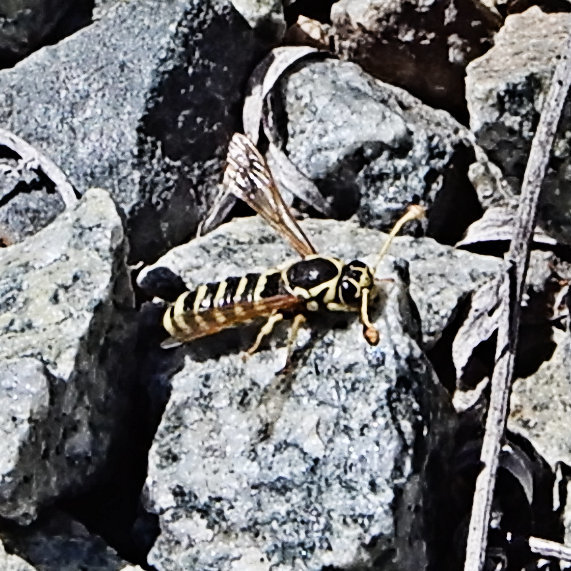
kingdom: Animalia
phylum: Arthropoda
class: Insecta
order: Hymenoptera
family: Masaridae
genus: Pseudomasaris
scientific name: Pseudomasaris edwardsi
